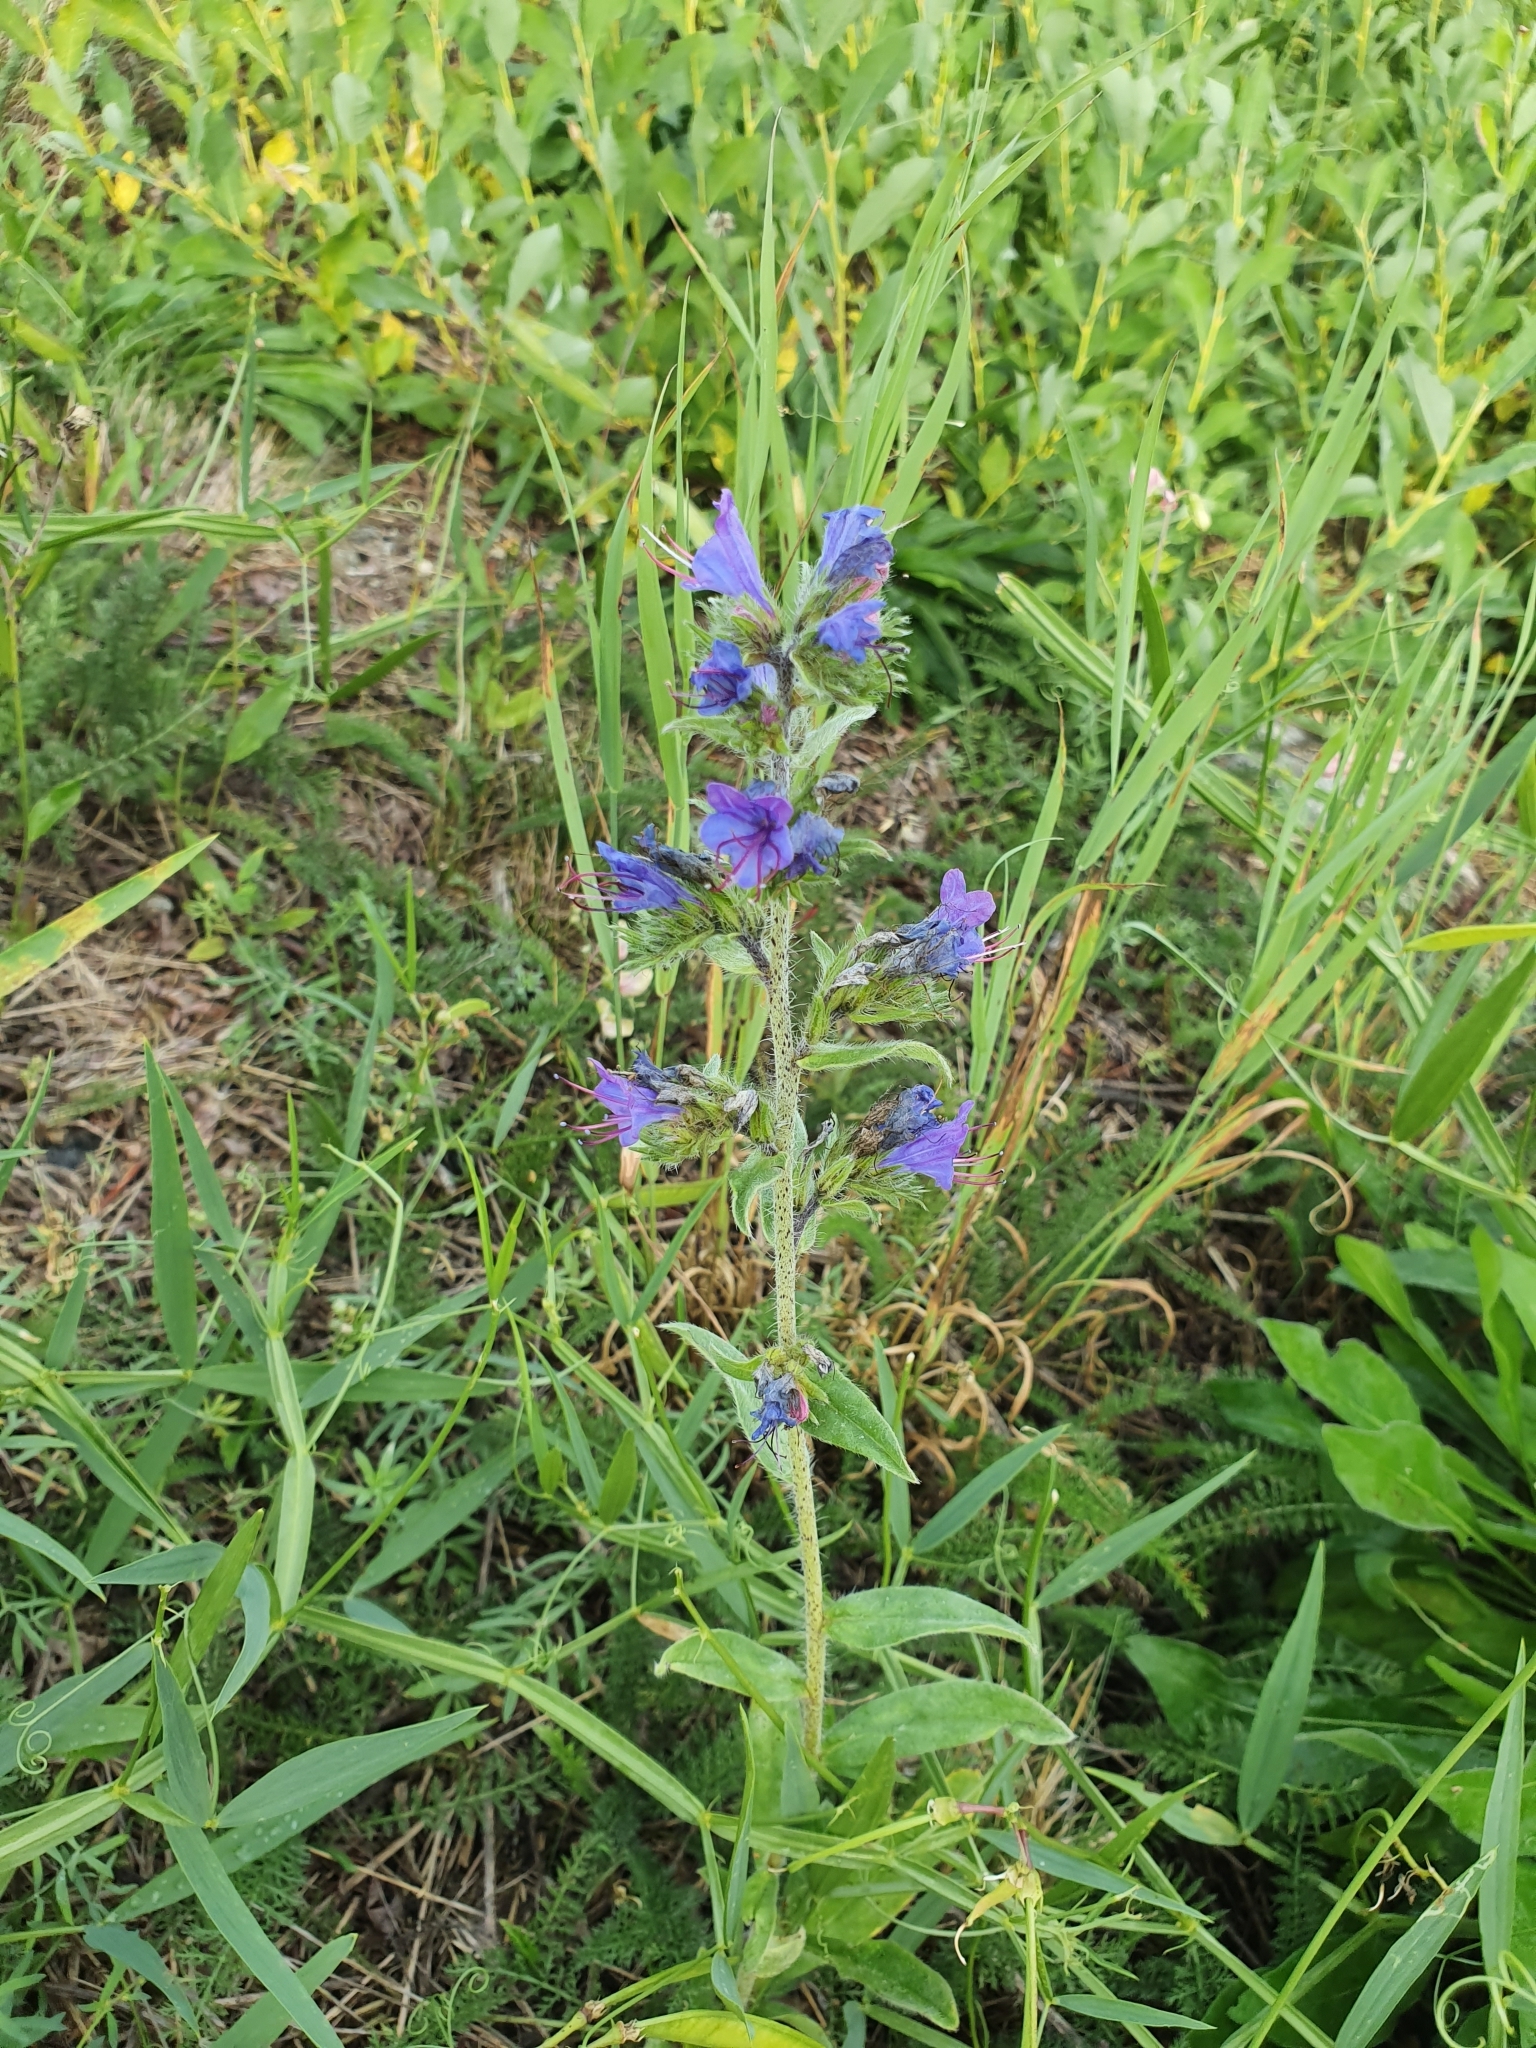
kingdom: Plantae
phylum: Tracheophyta
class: Magnoliopsida
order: Boraginales
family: Boraginaceae
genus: Echium
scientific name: Echium vulgare
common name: Common viper's bugloss
